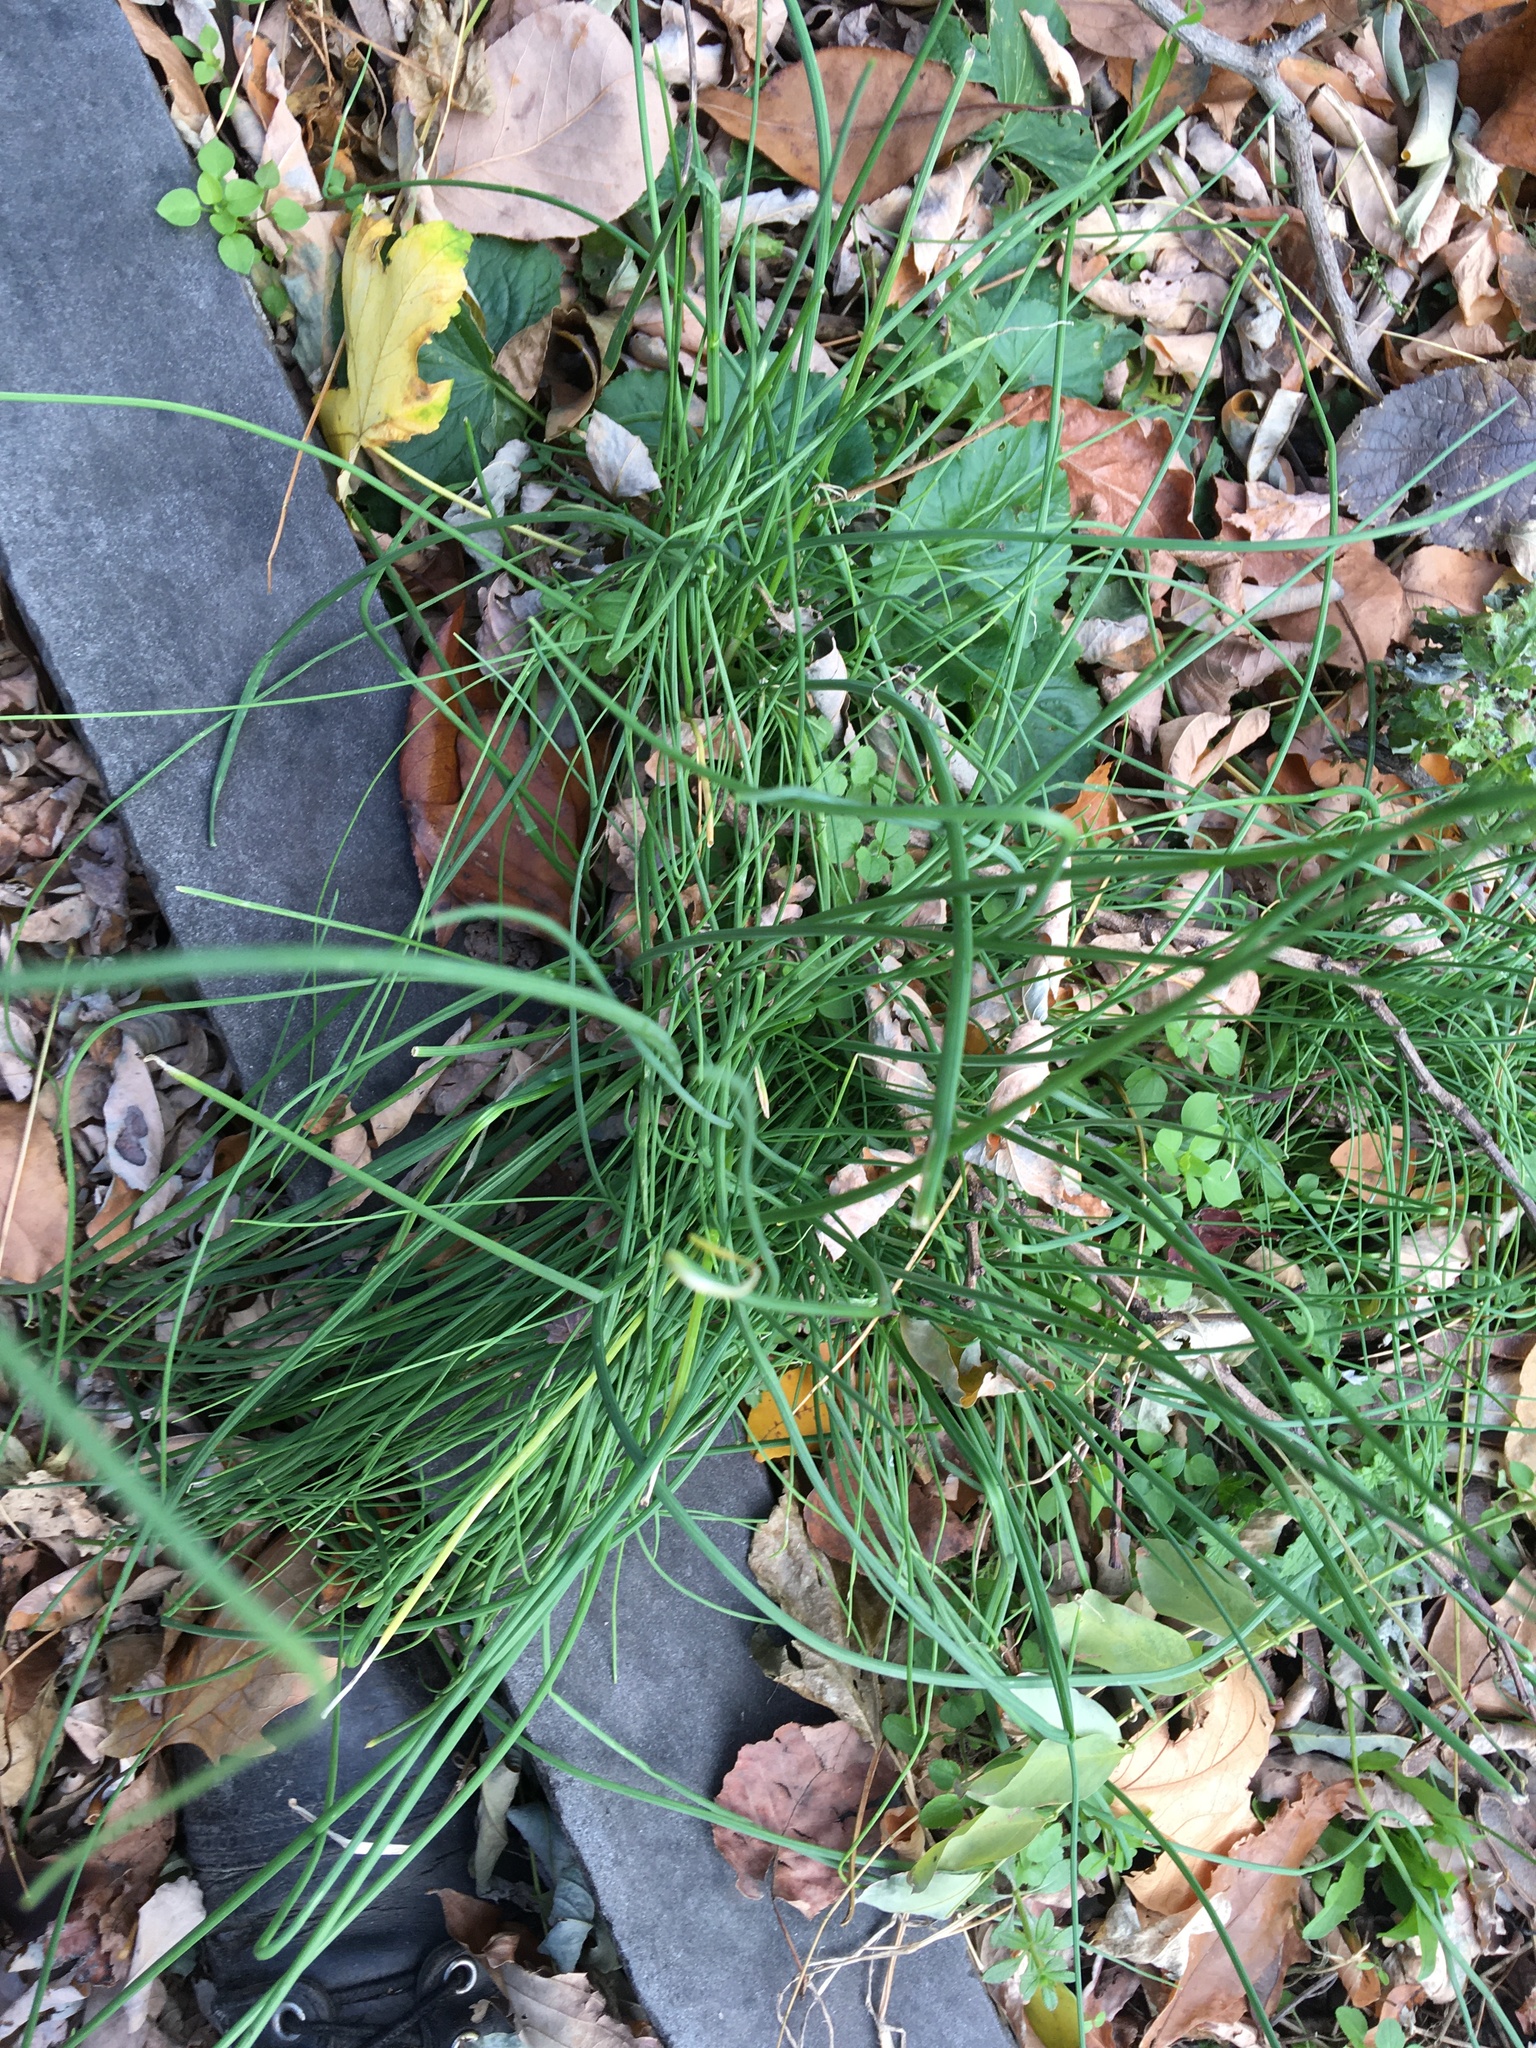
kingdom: Plantae
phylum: Tracheophyta
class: Liliopsida
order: Asparagales
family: Amaryllidaceae
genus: Allium
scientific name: Allium vineale
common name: Crow garlic
